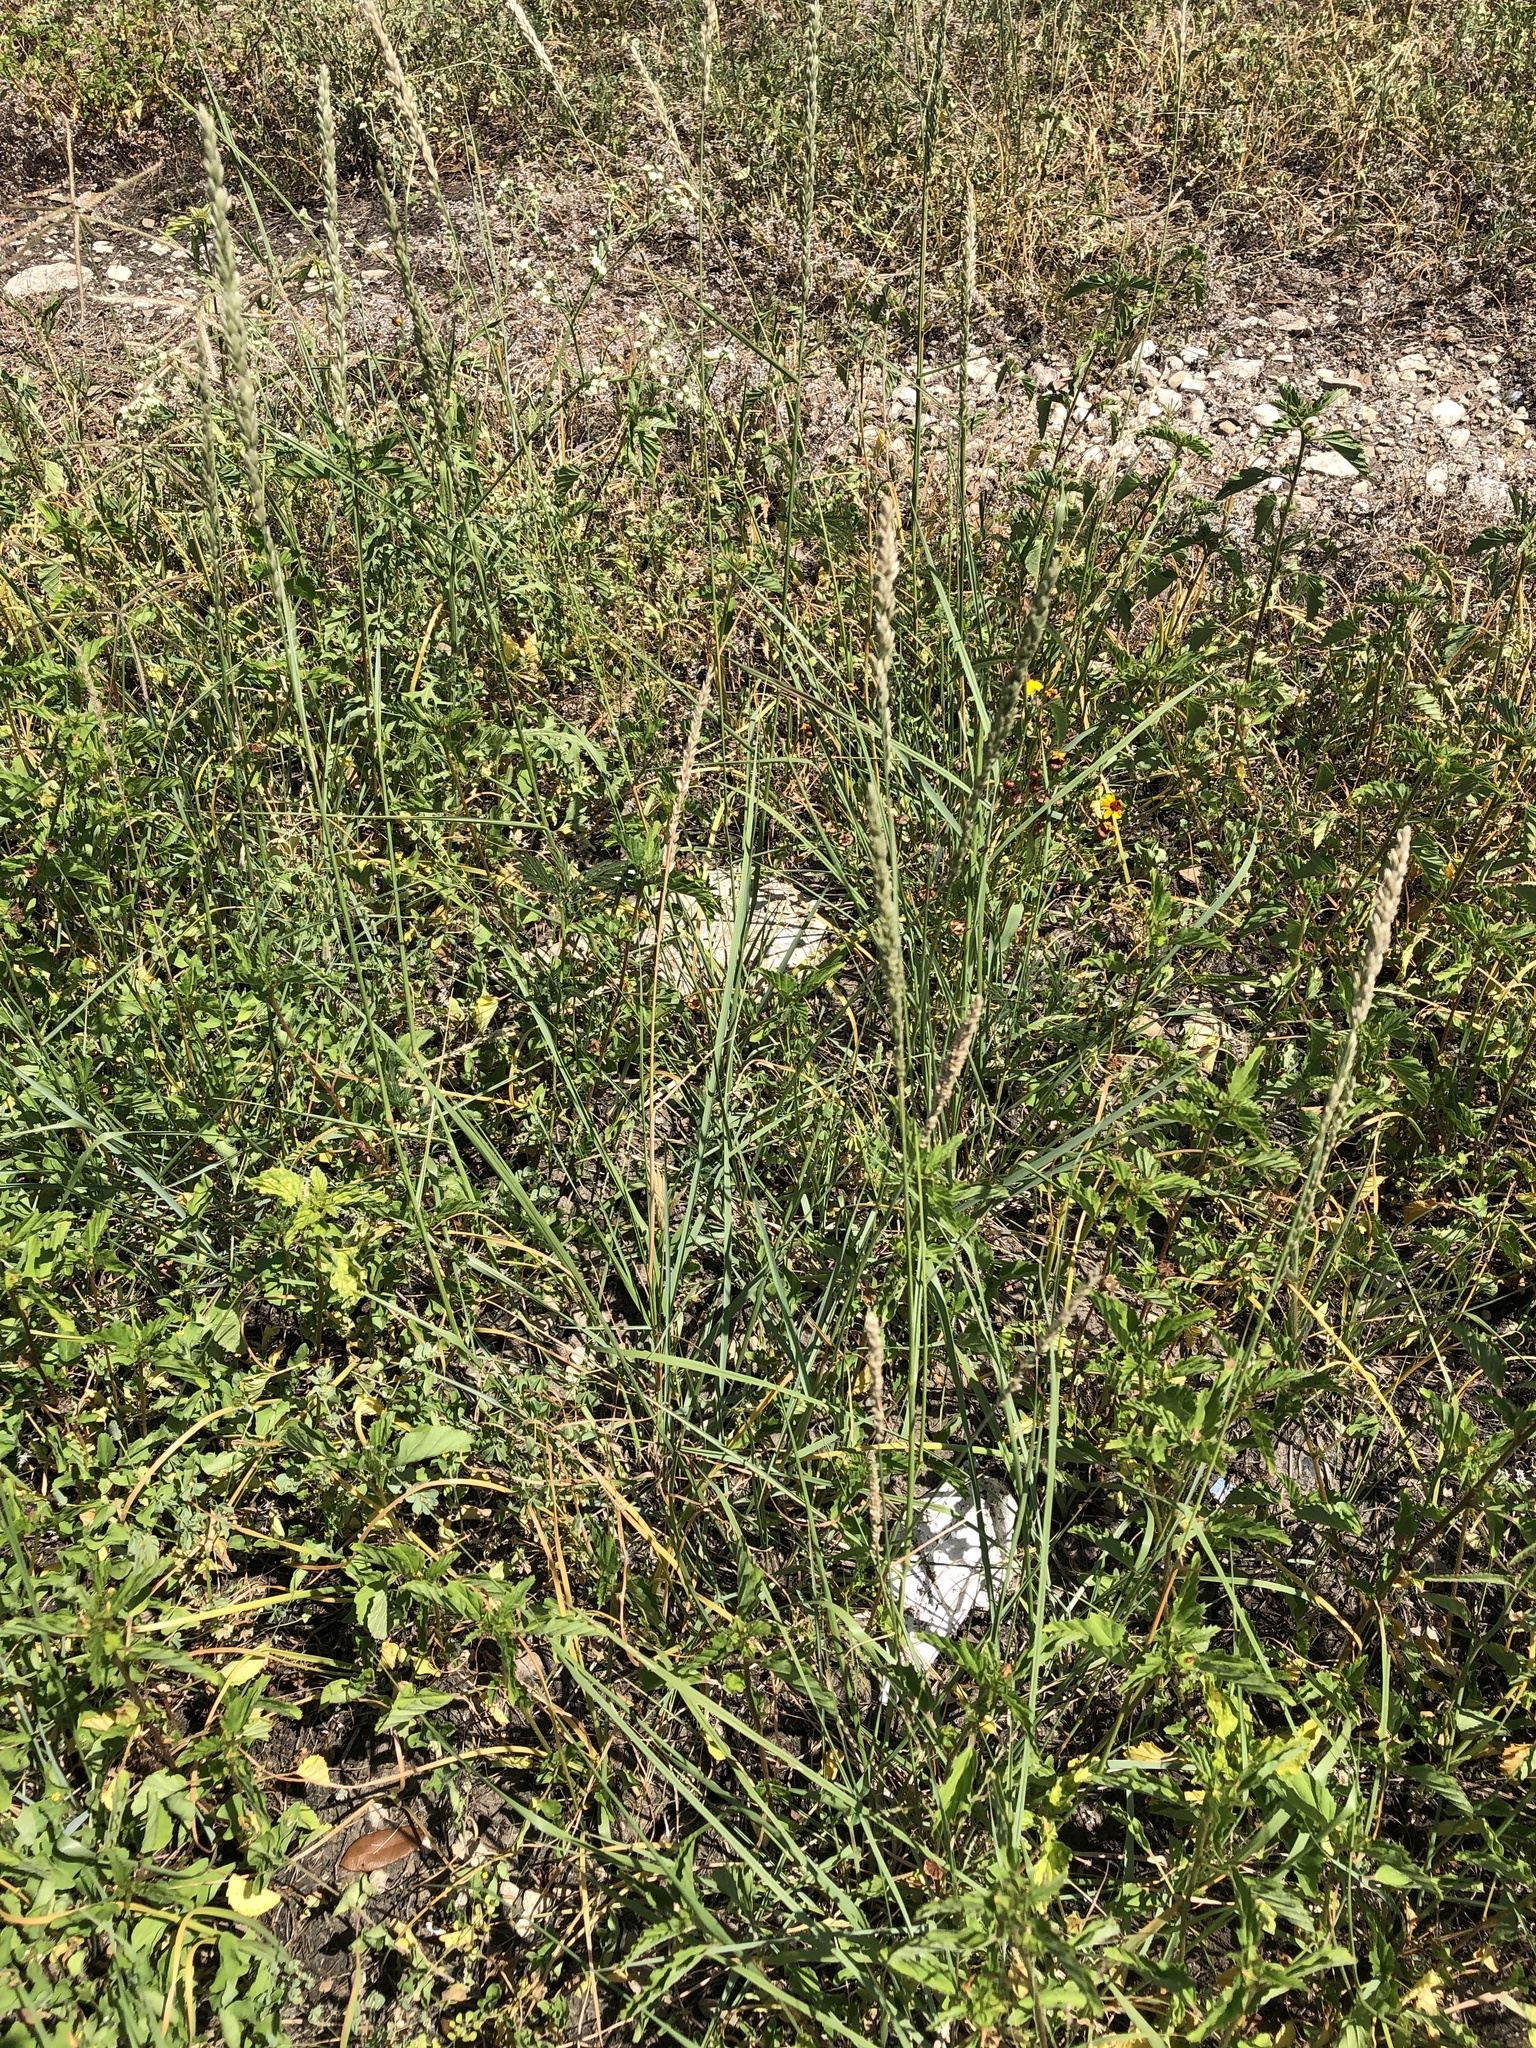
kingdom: Plantae
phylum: Tracheophyta
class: Liliopsida
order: Poales
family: Poaceae
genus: Tridens
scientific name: Tridens albescens
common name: White tridens
